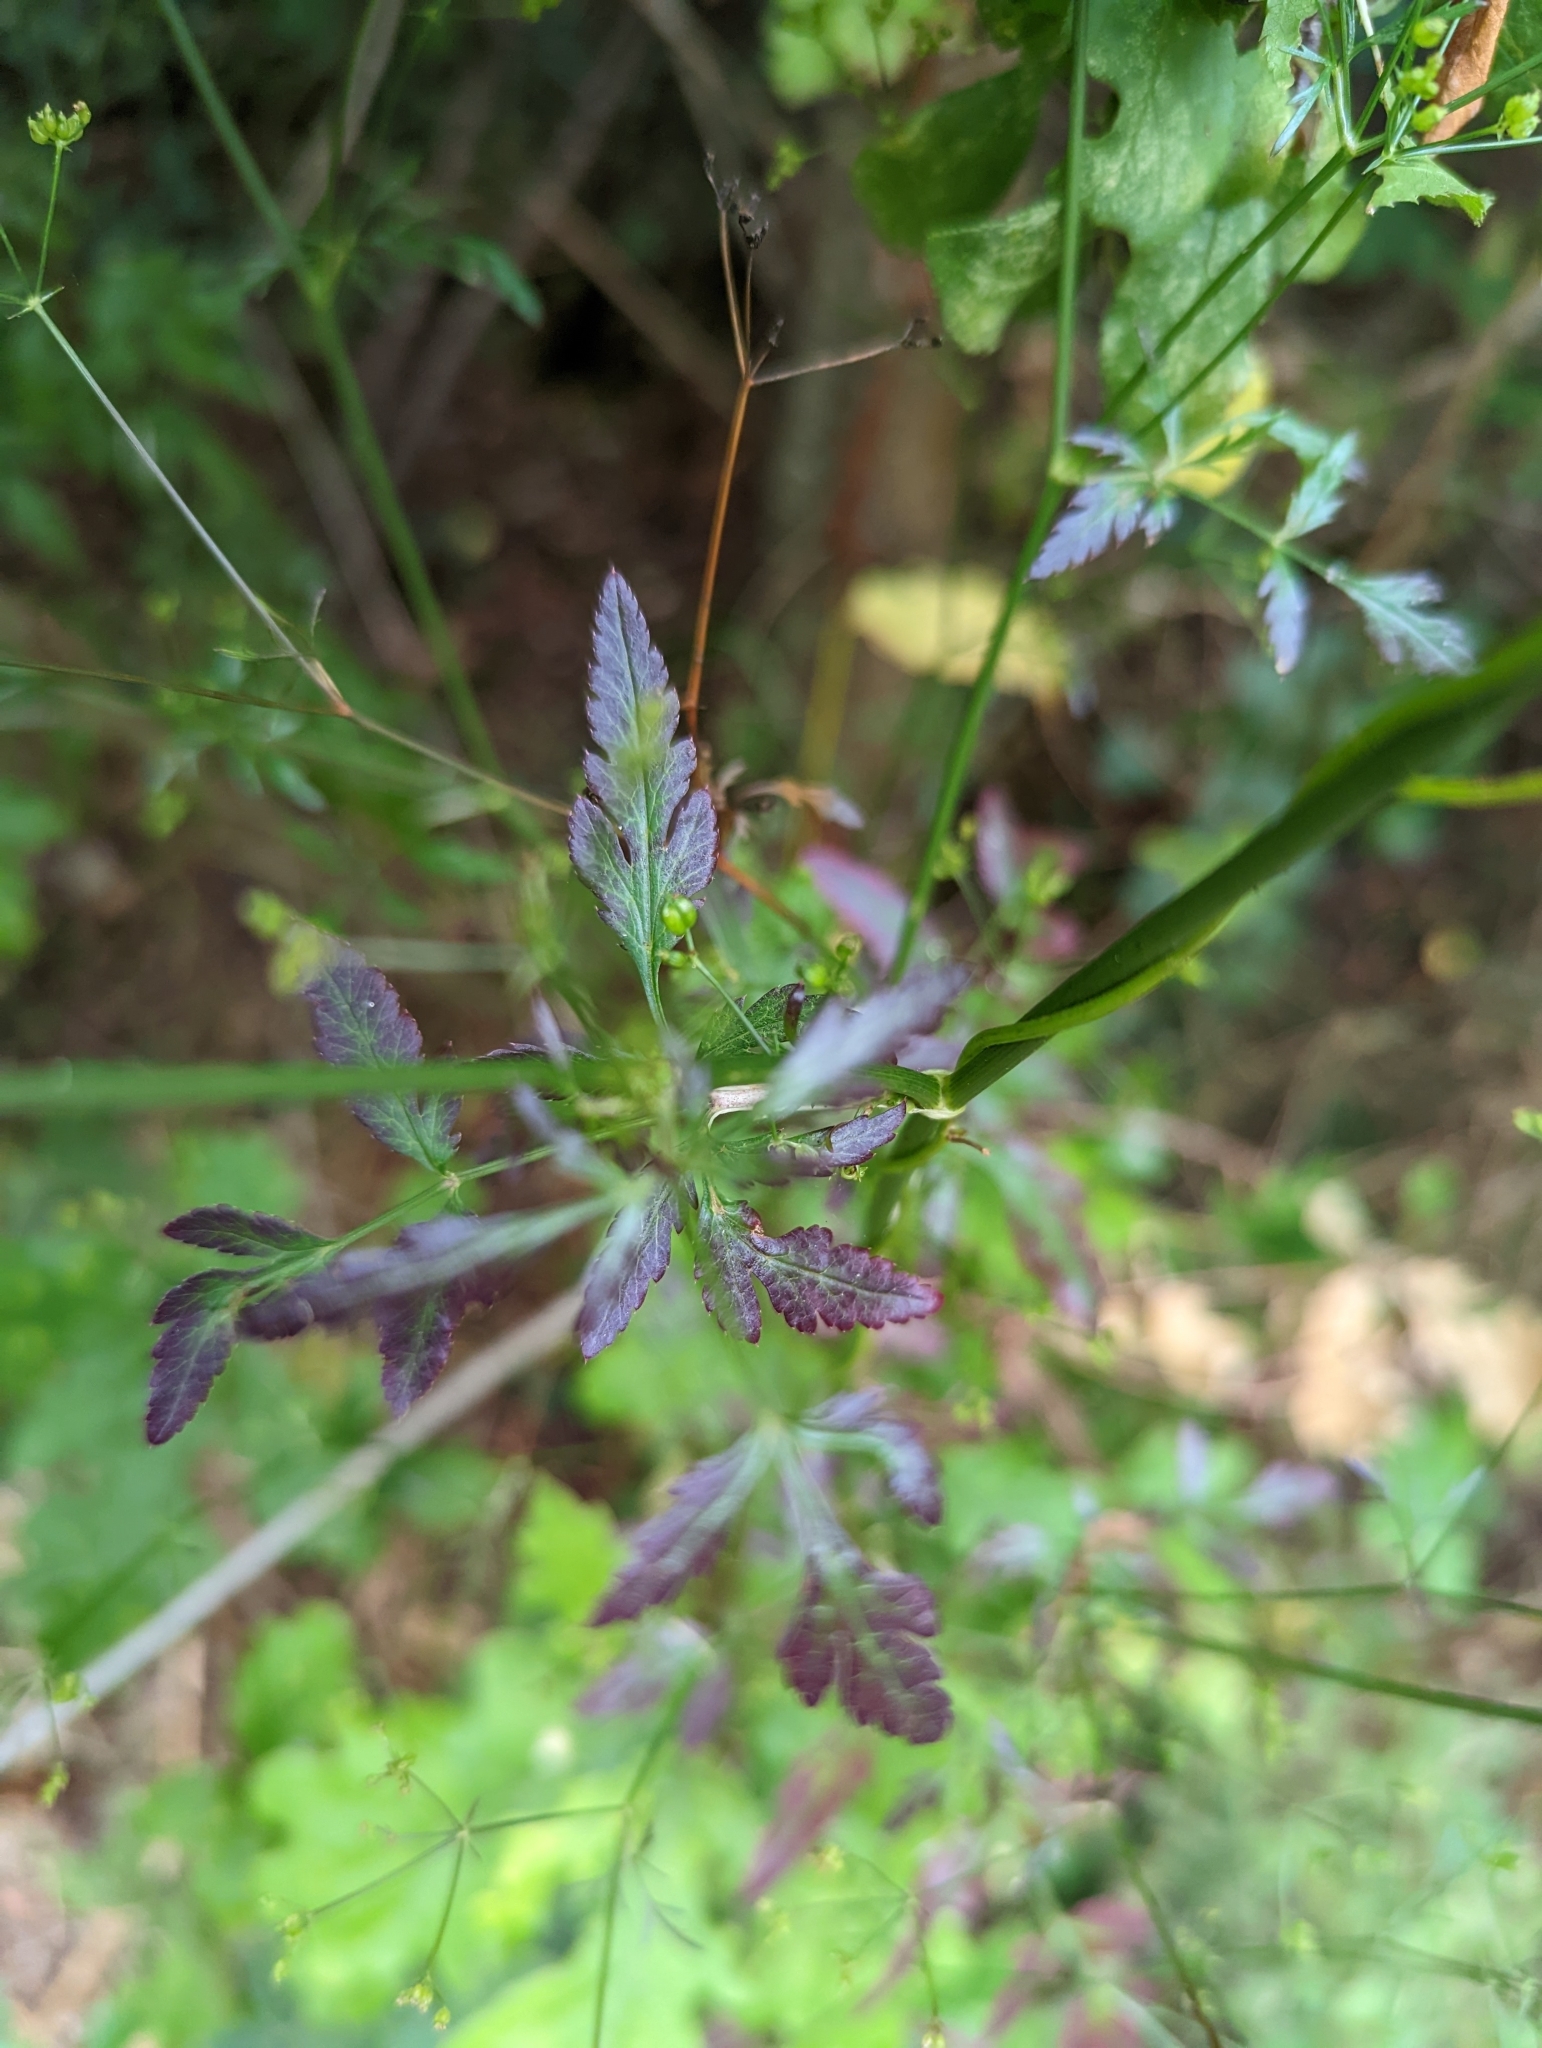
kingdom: Plantae
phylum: Tracheophyta
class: Magnoliopsida
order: Apiales
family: Apiaceae
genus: Sison
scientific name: Sison amomum
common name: Stone-parsley
